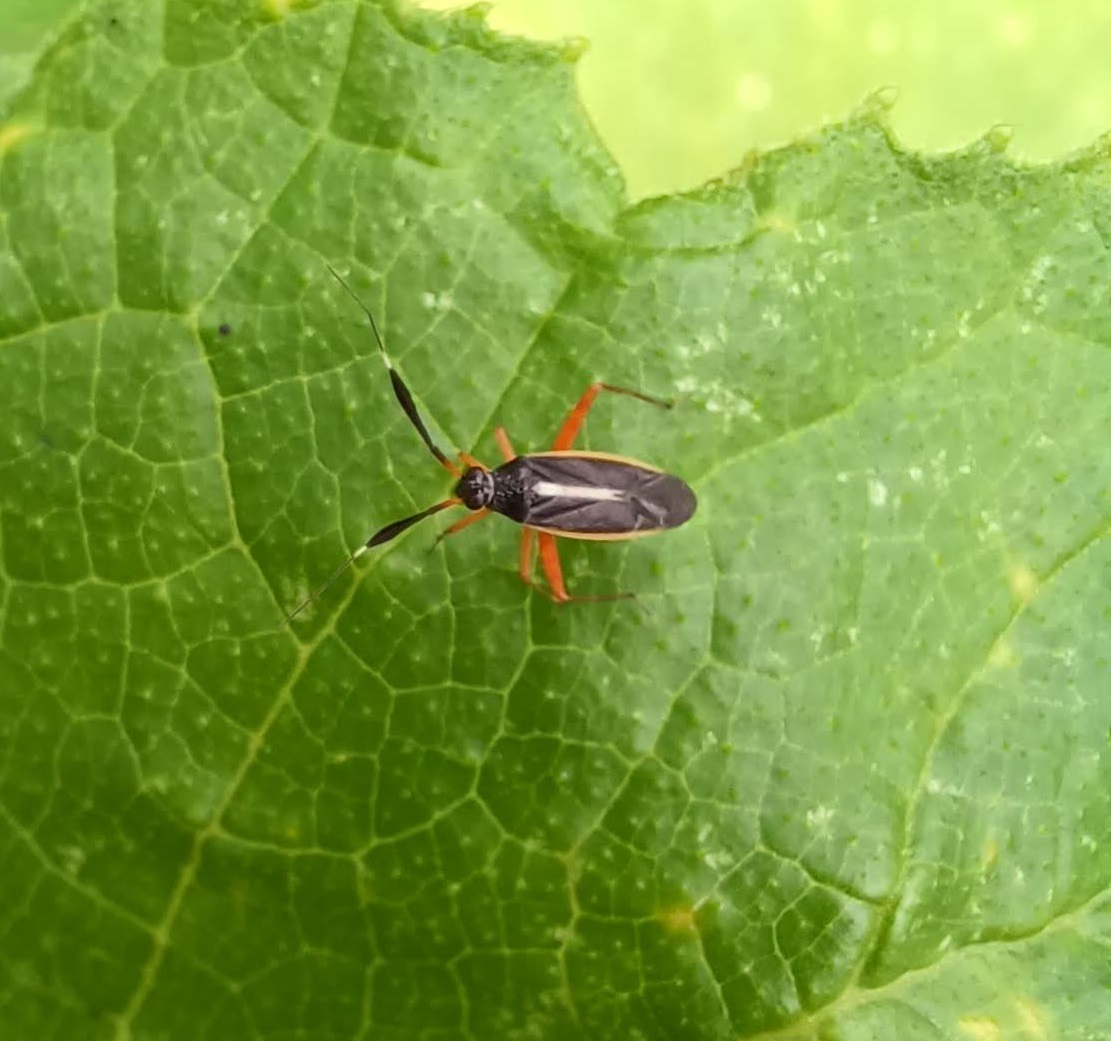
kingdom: Animalia
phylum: Arthropoda
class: Insecta
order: Hemiptera
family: Miridae
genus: Garganus
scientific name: Garganus fusiformis
